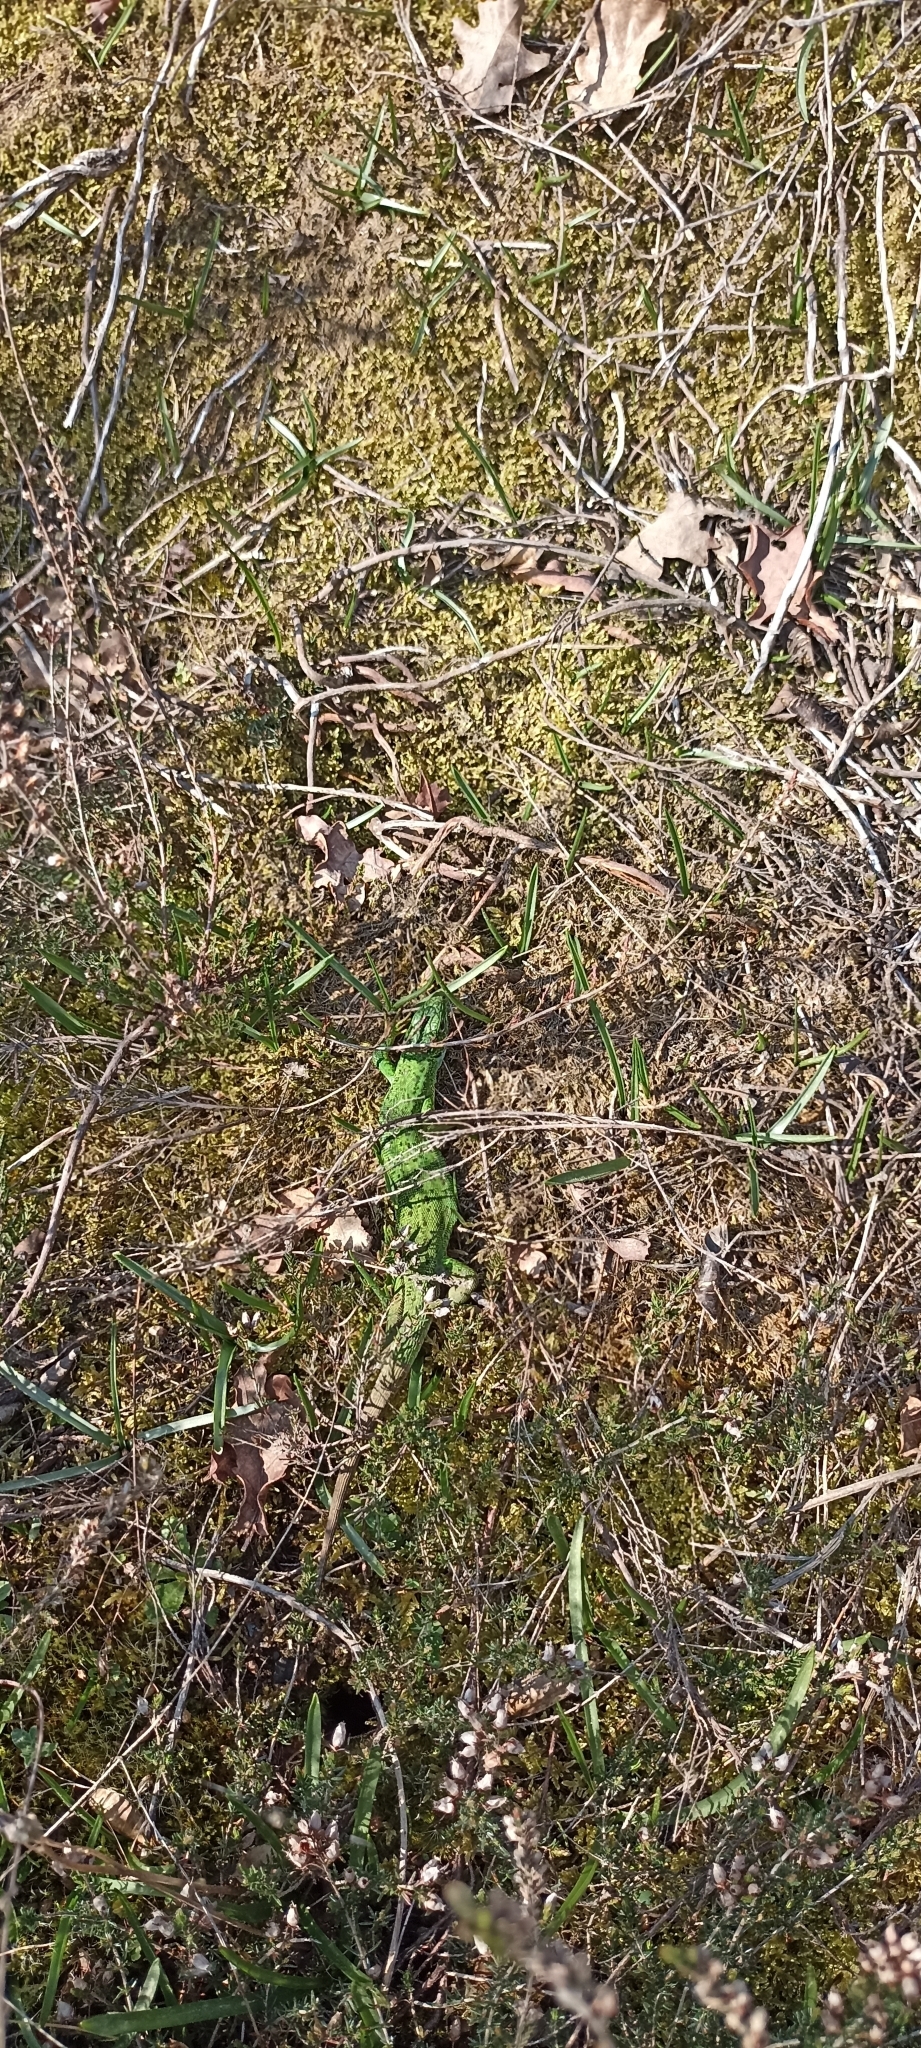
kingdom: Animalia
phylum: Chordata
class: Squamata
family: Lacertidae
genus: Lacerta
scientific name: Lacerta bilineata
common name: Western green lizard
